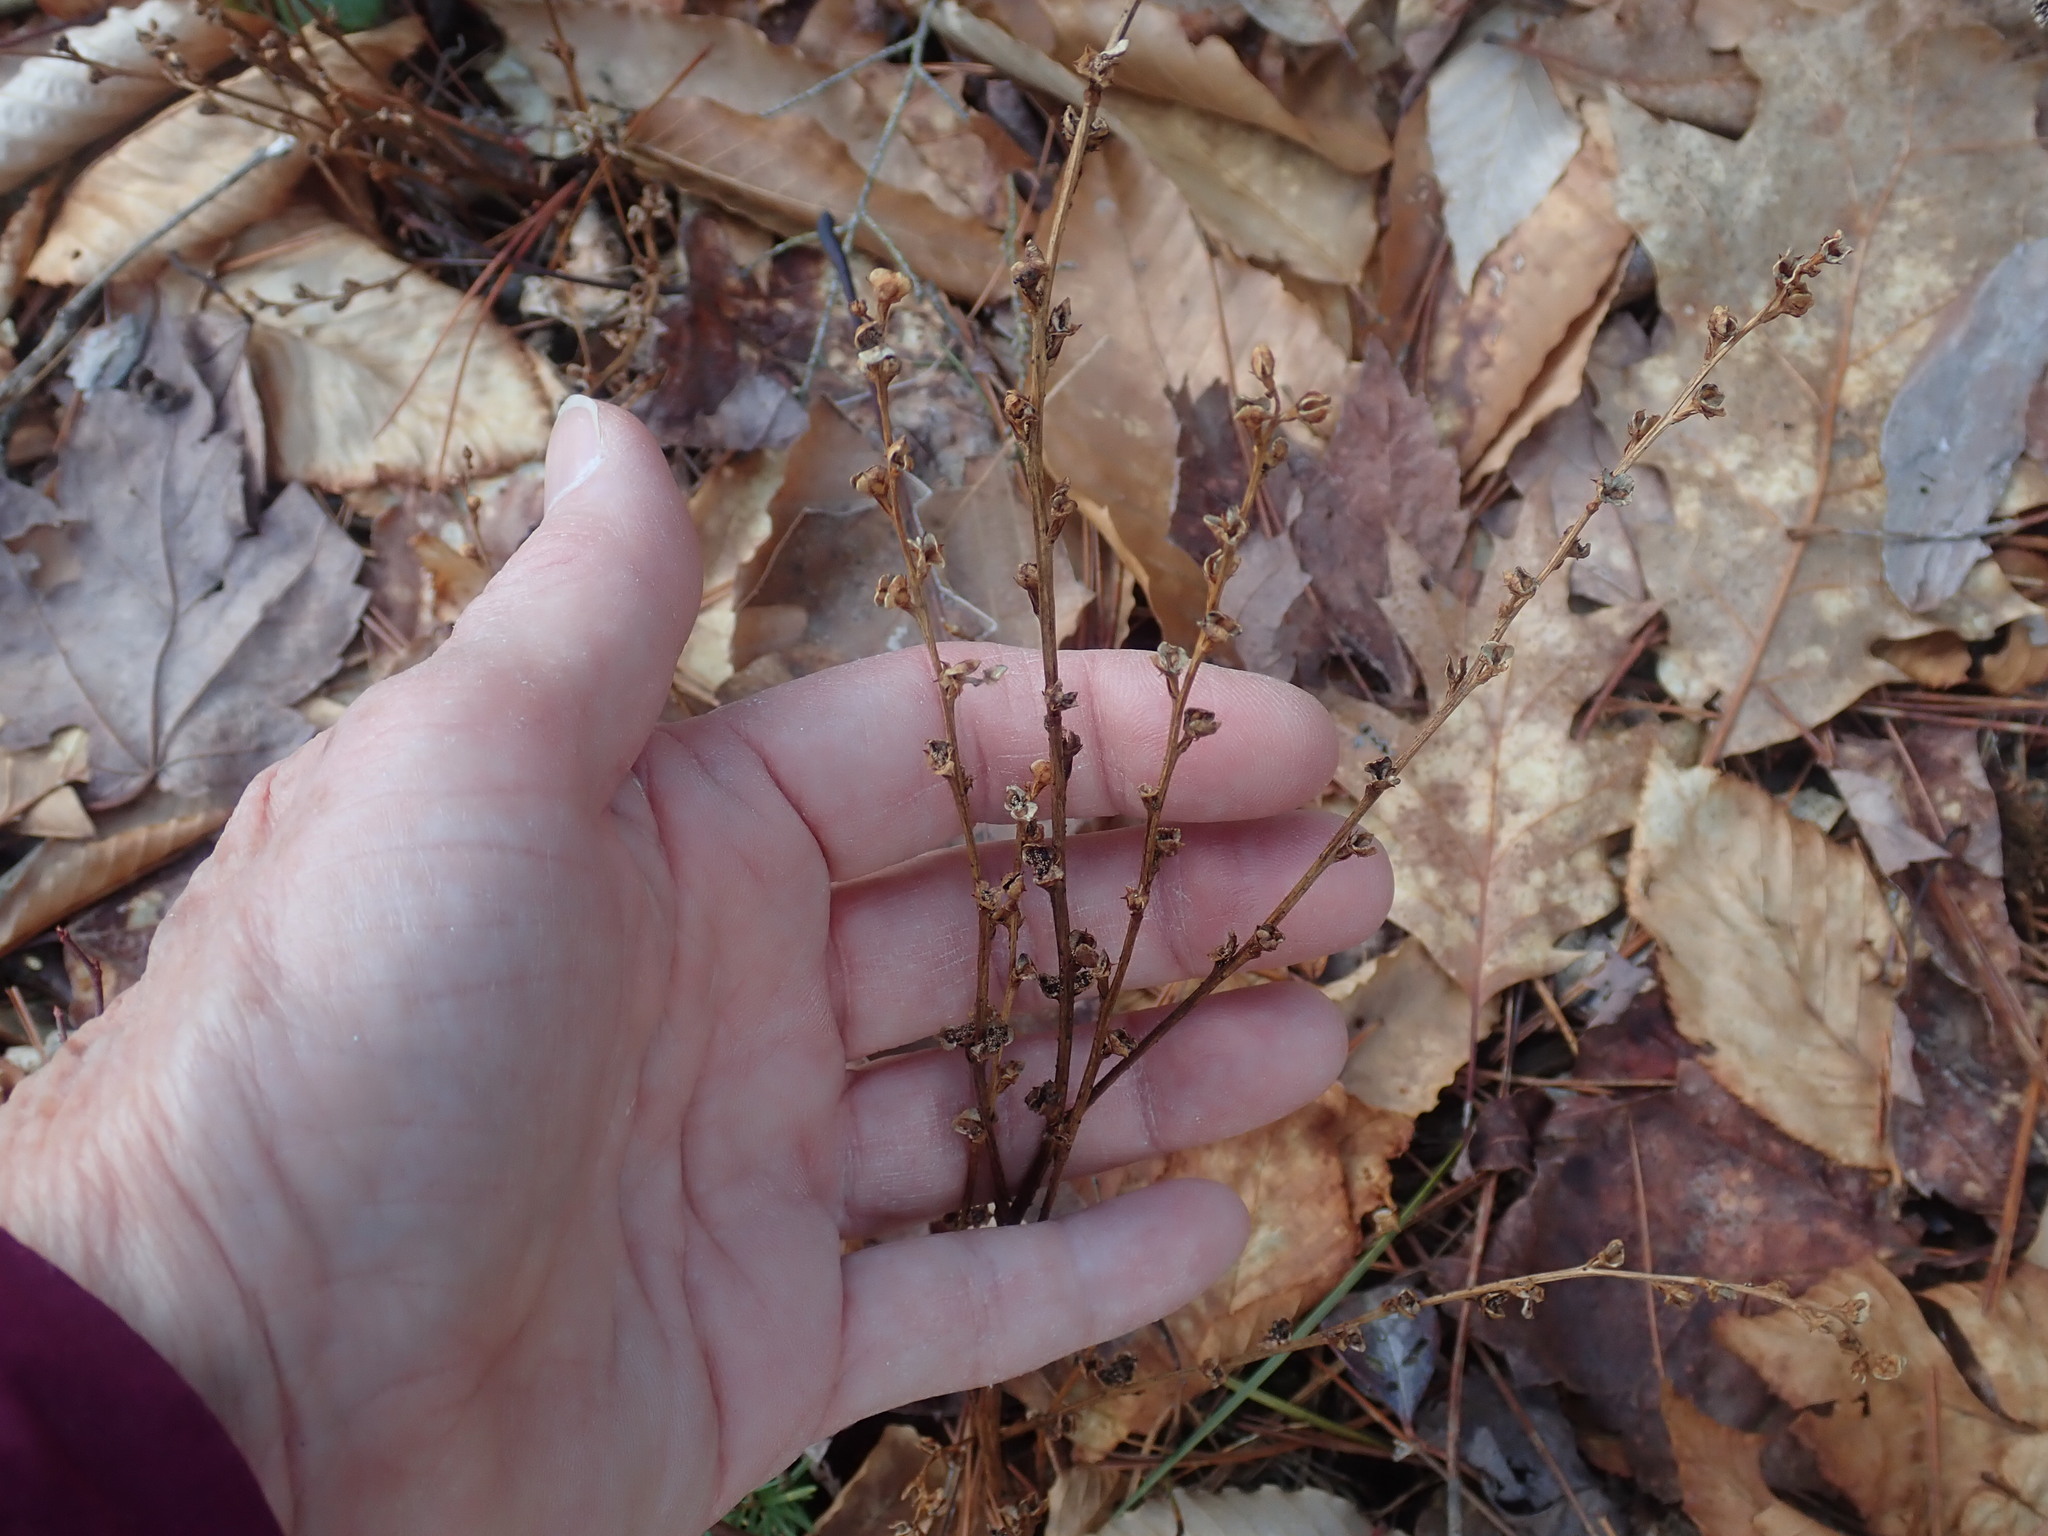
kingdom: Plantae
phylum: Tracheophyta
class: Magnoliopsida
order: Lamiales
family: Orobanchaceae
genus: Epifagus
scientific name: Epifagus virginiana
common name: Beechdrops
